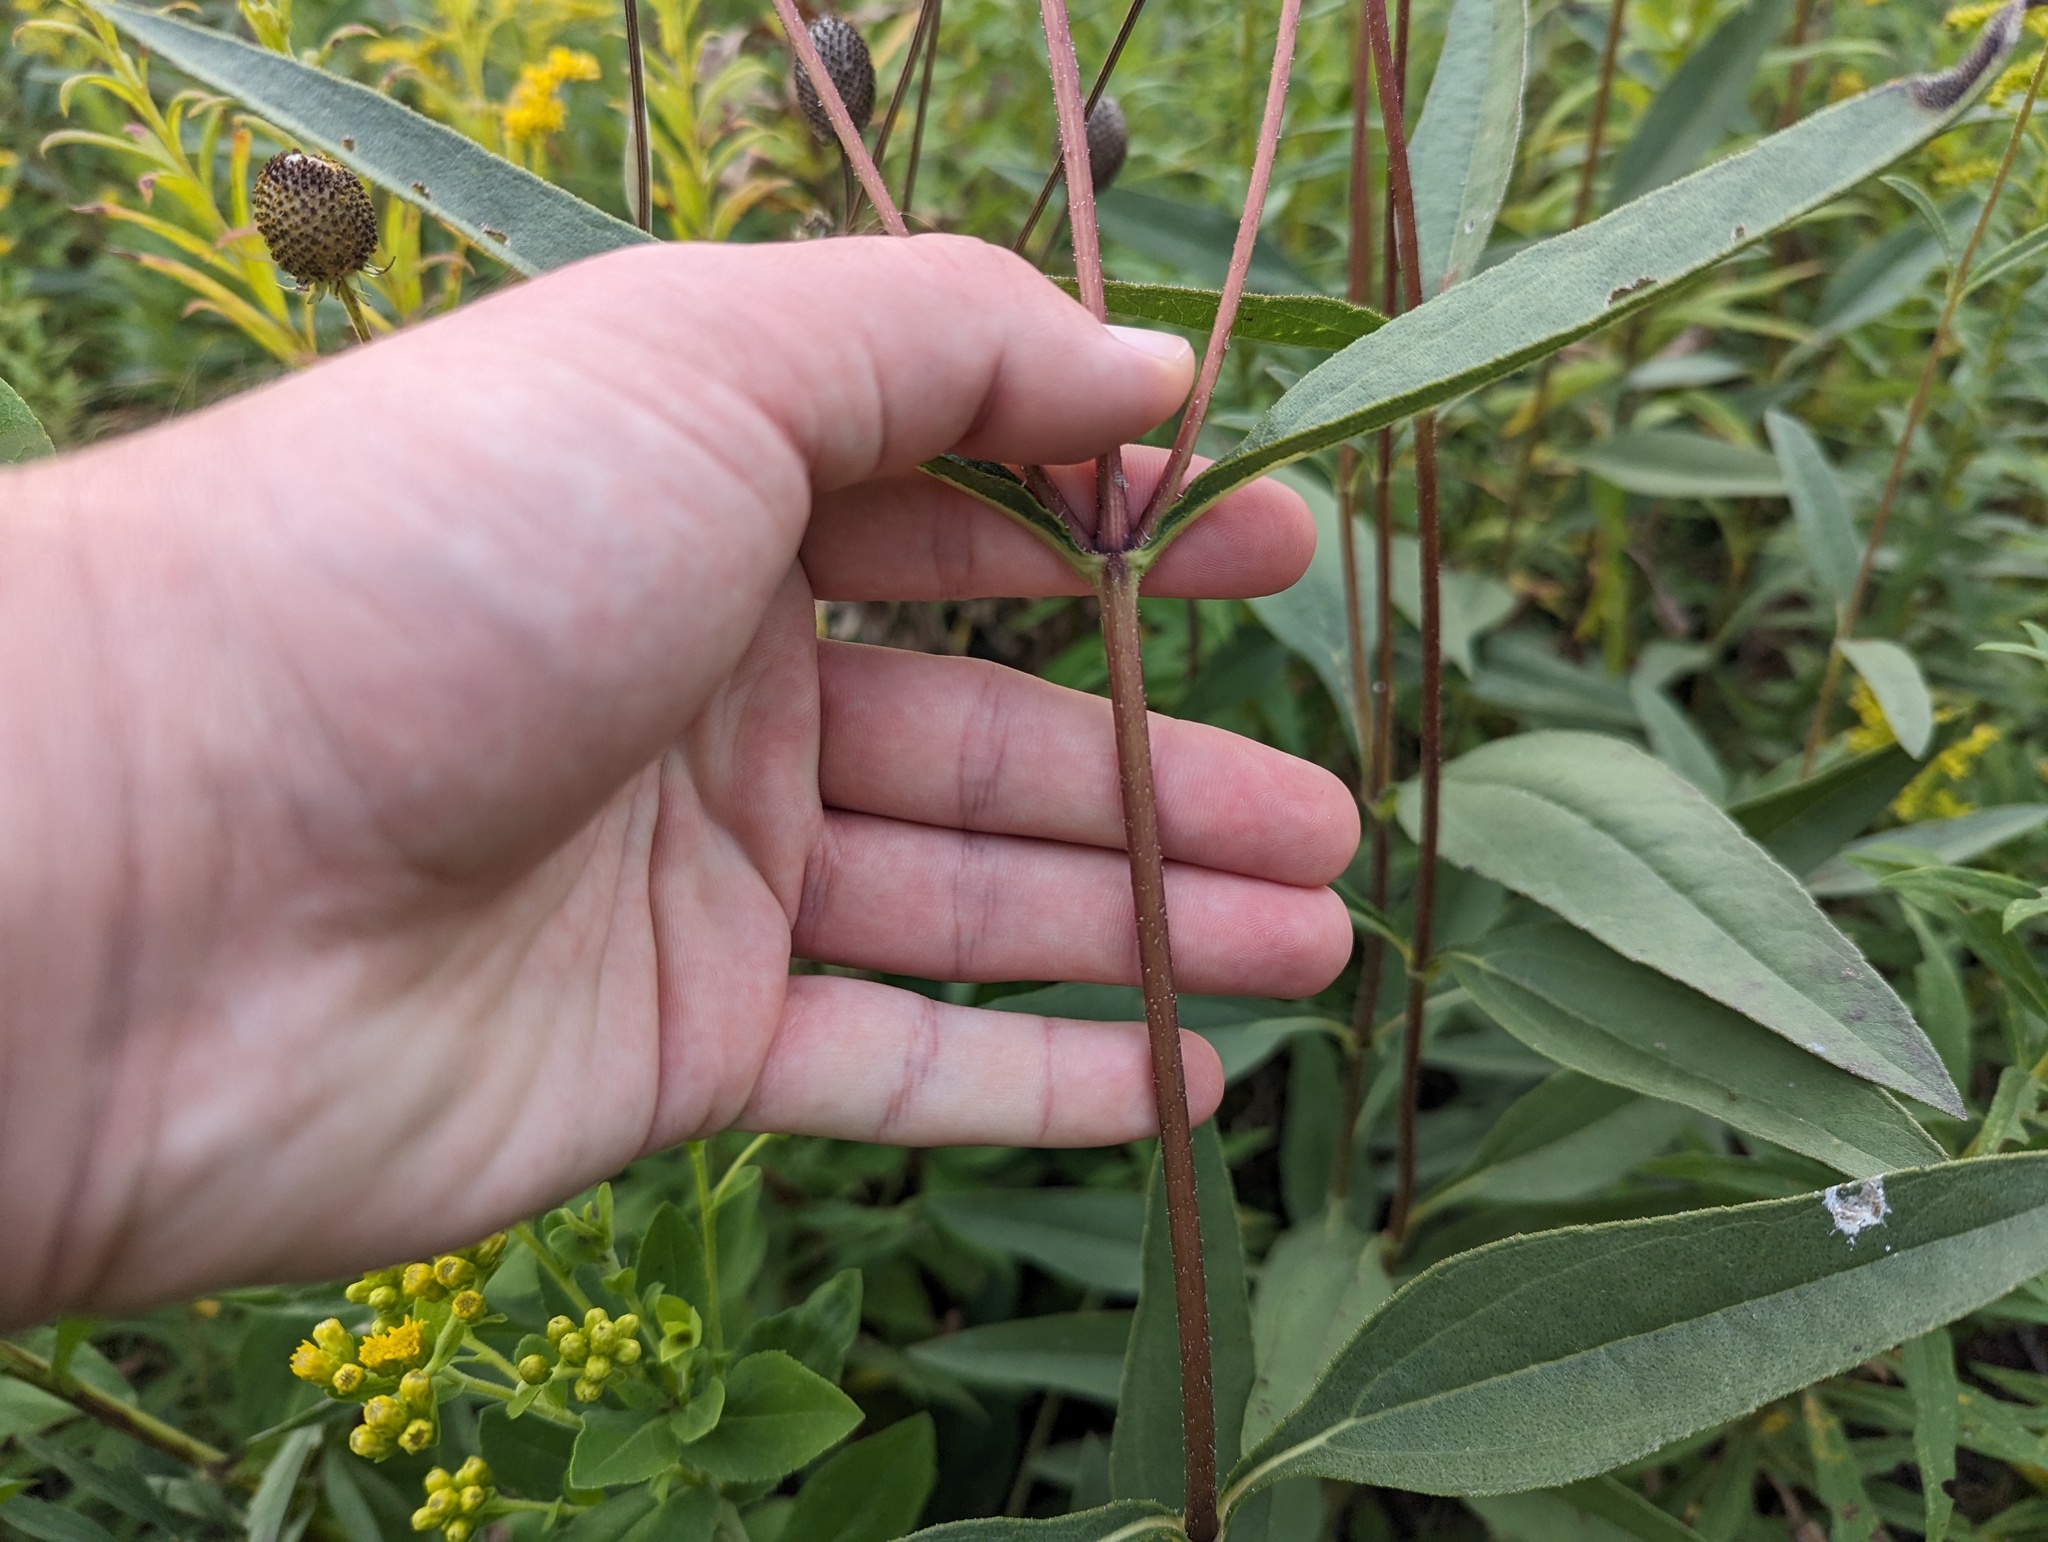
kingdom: Plantae
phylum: Tracheophyta
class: Magnoliopsida
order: Asterales
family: Asteraceae
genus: Helianthus
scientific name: Helianthus pauciflorus
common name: Stiff sunflower
